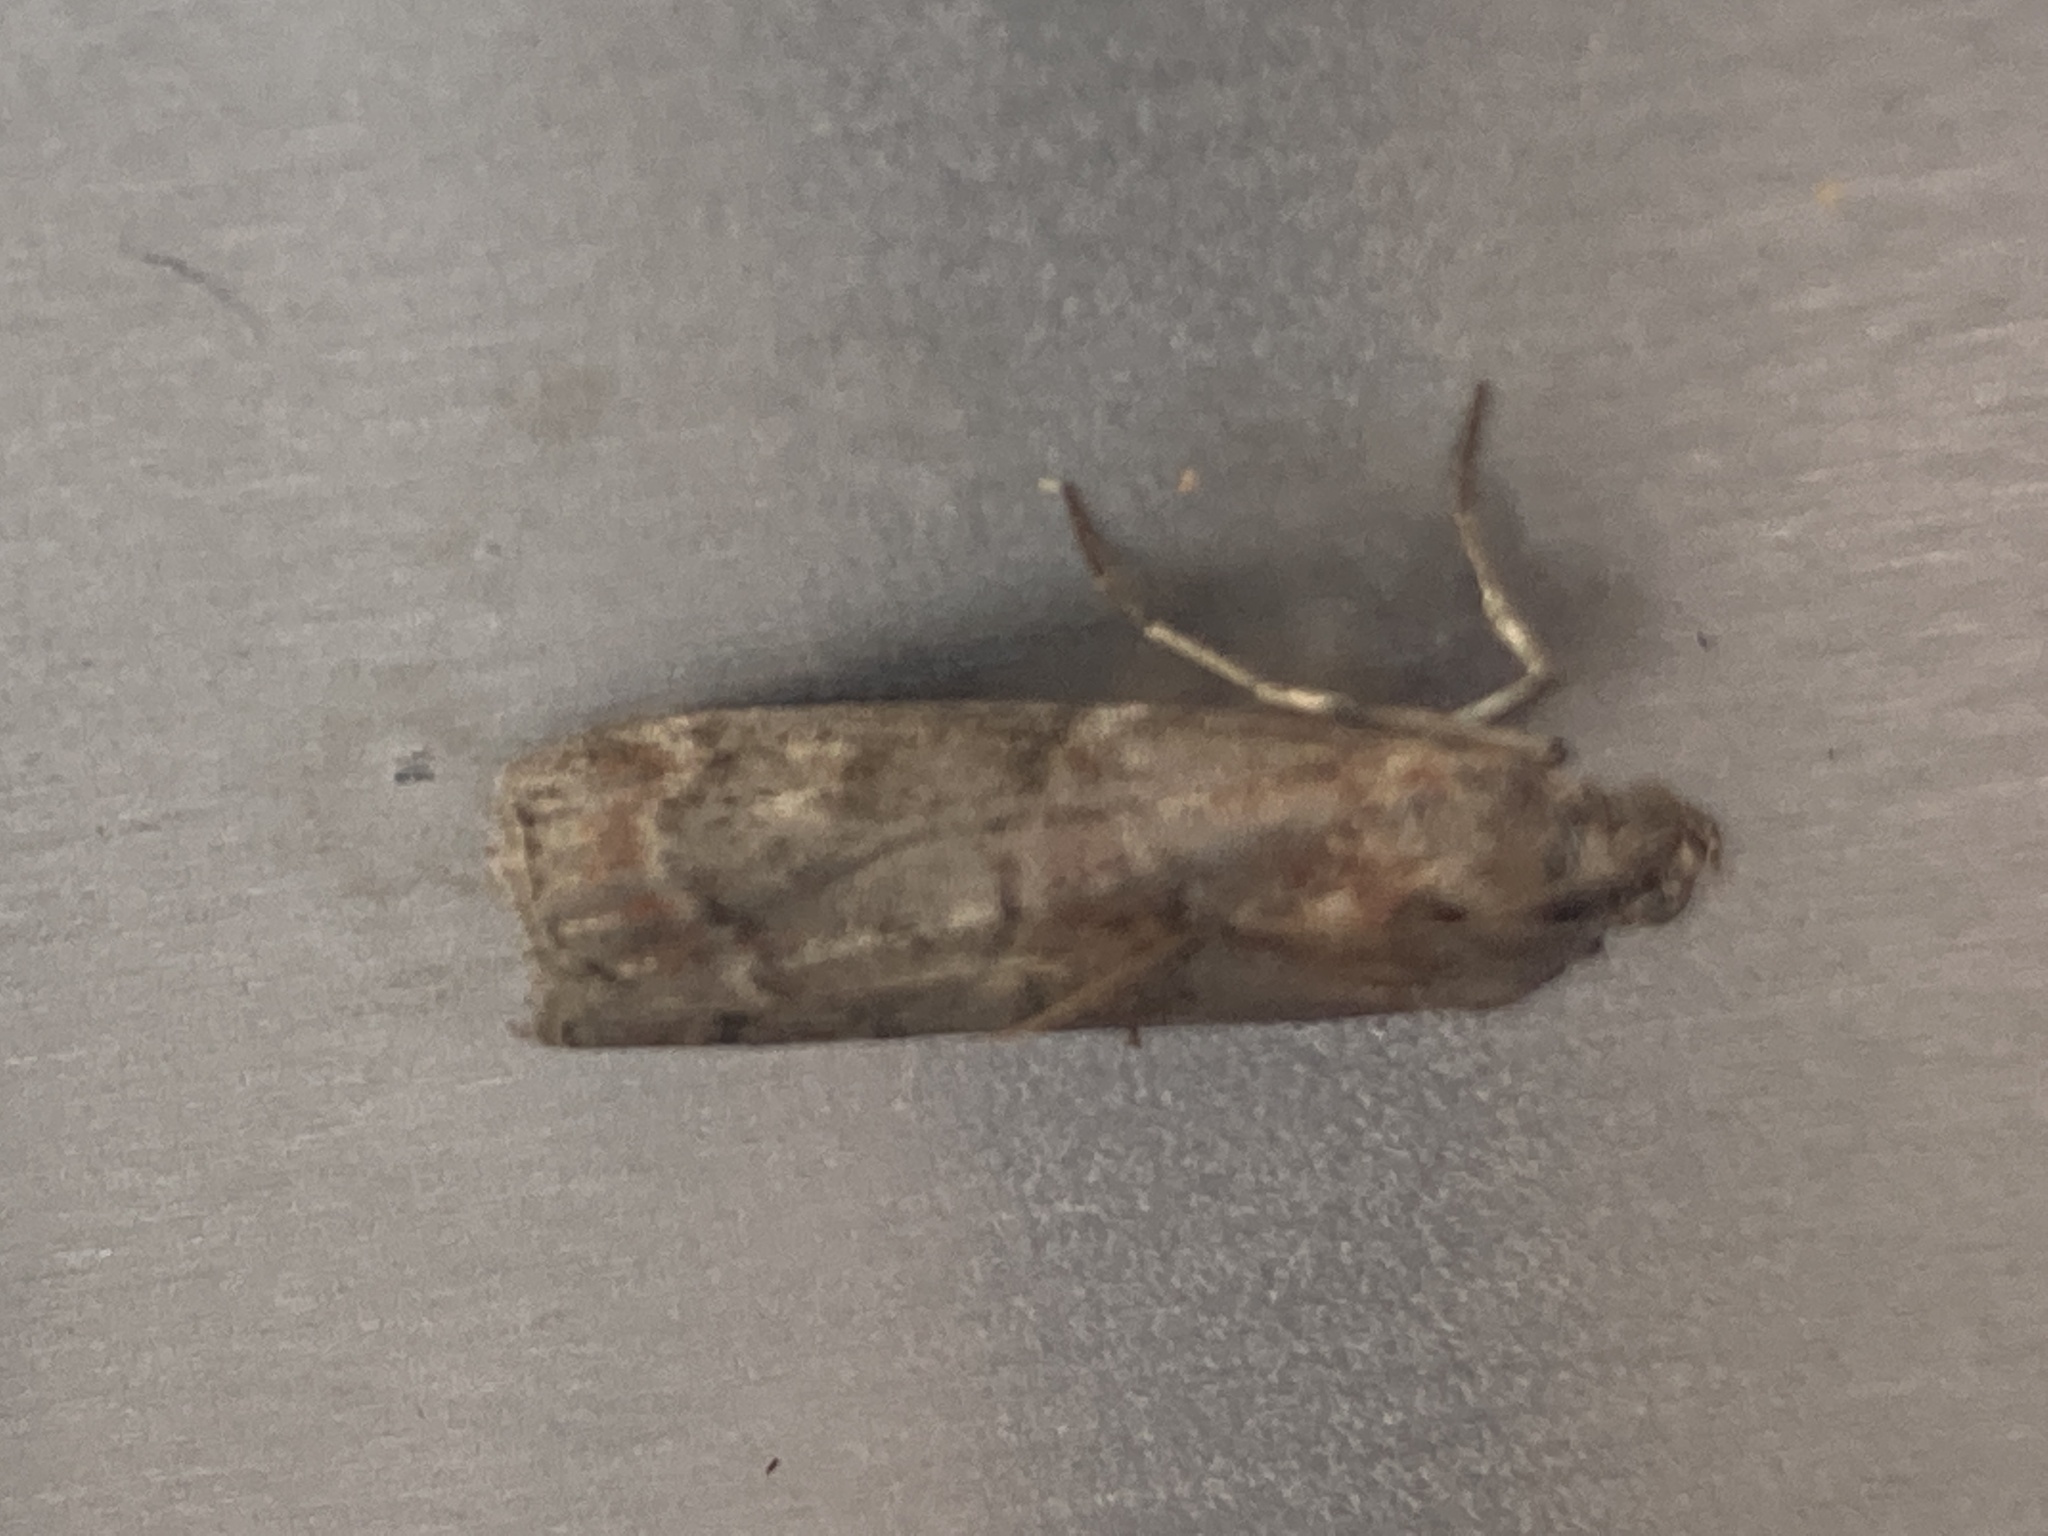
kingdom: Animalia
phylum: Arthropoda
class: Insecta
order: Lepidoptera
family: Pyralidae
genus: Phycita
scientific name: Phycita roborella
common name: Dotted oak knot-horn
